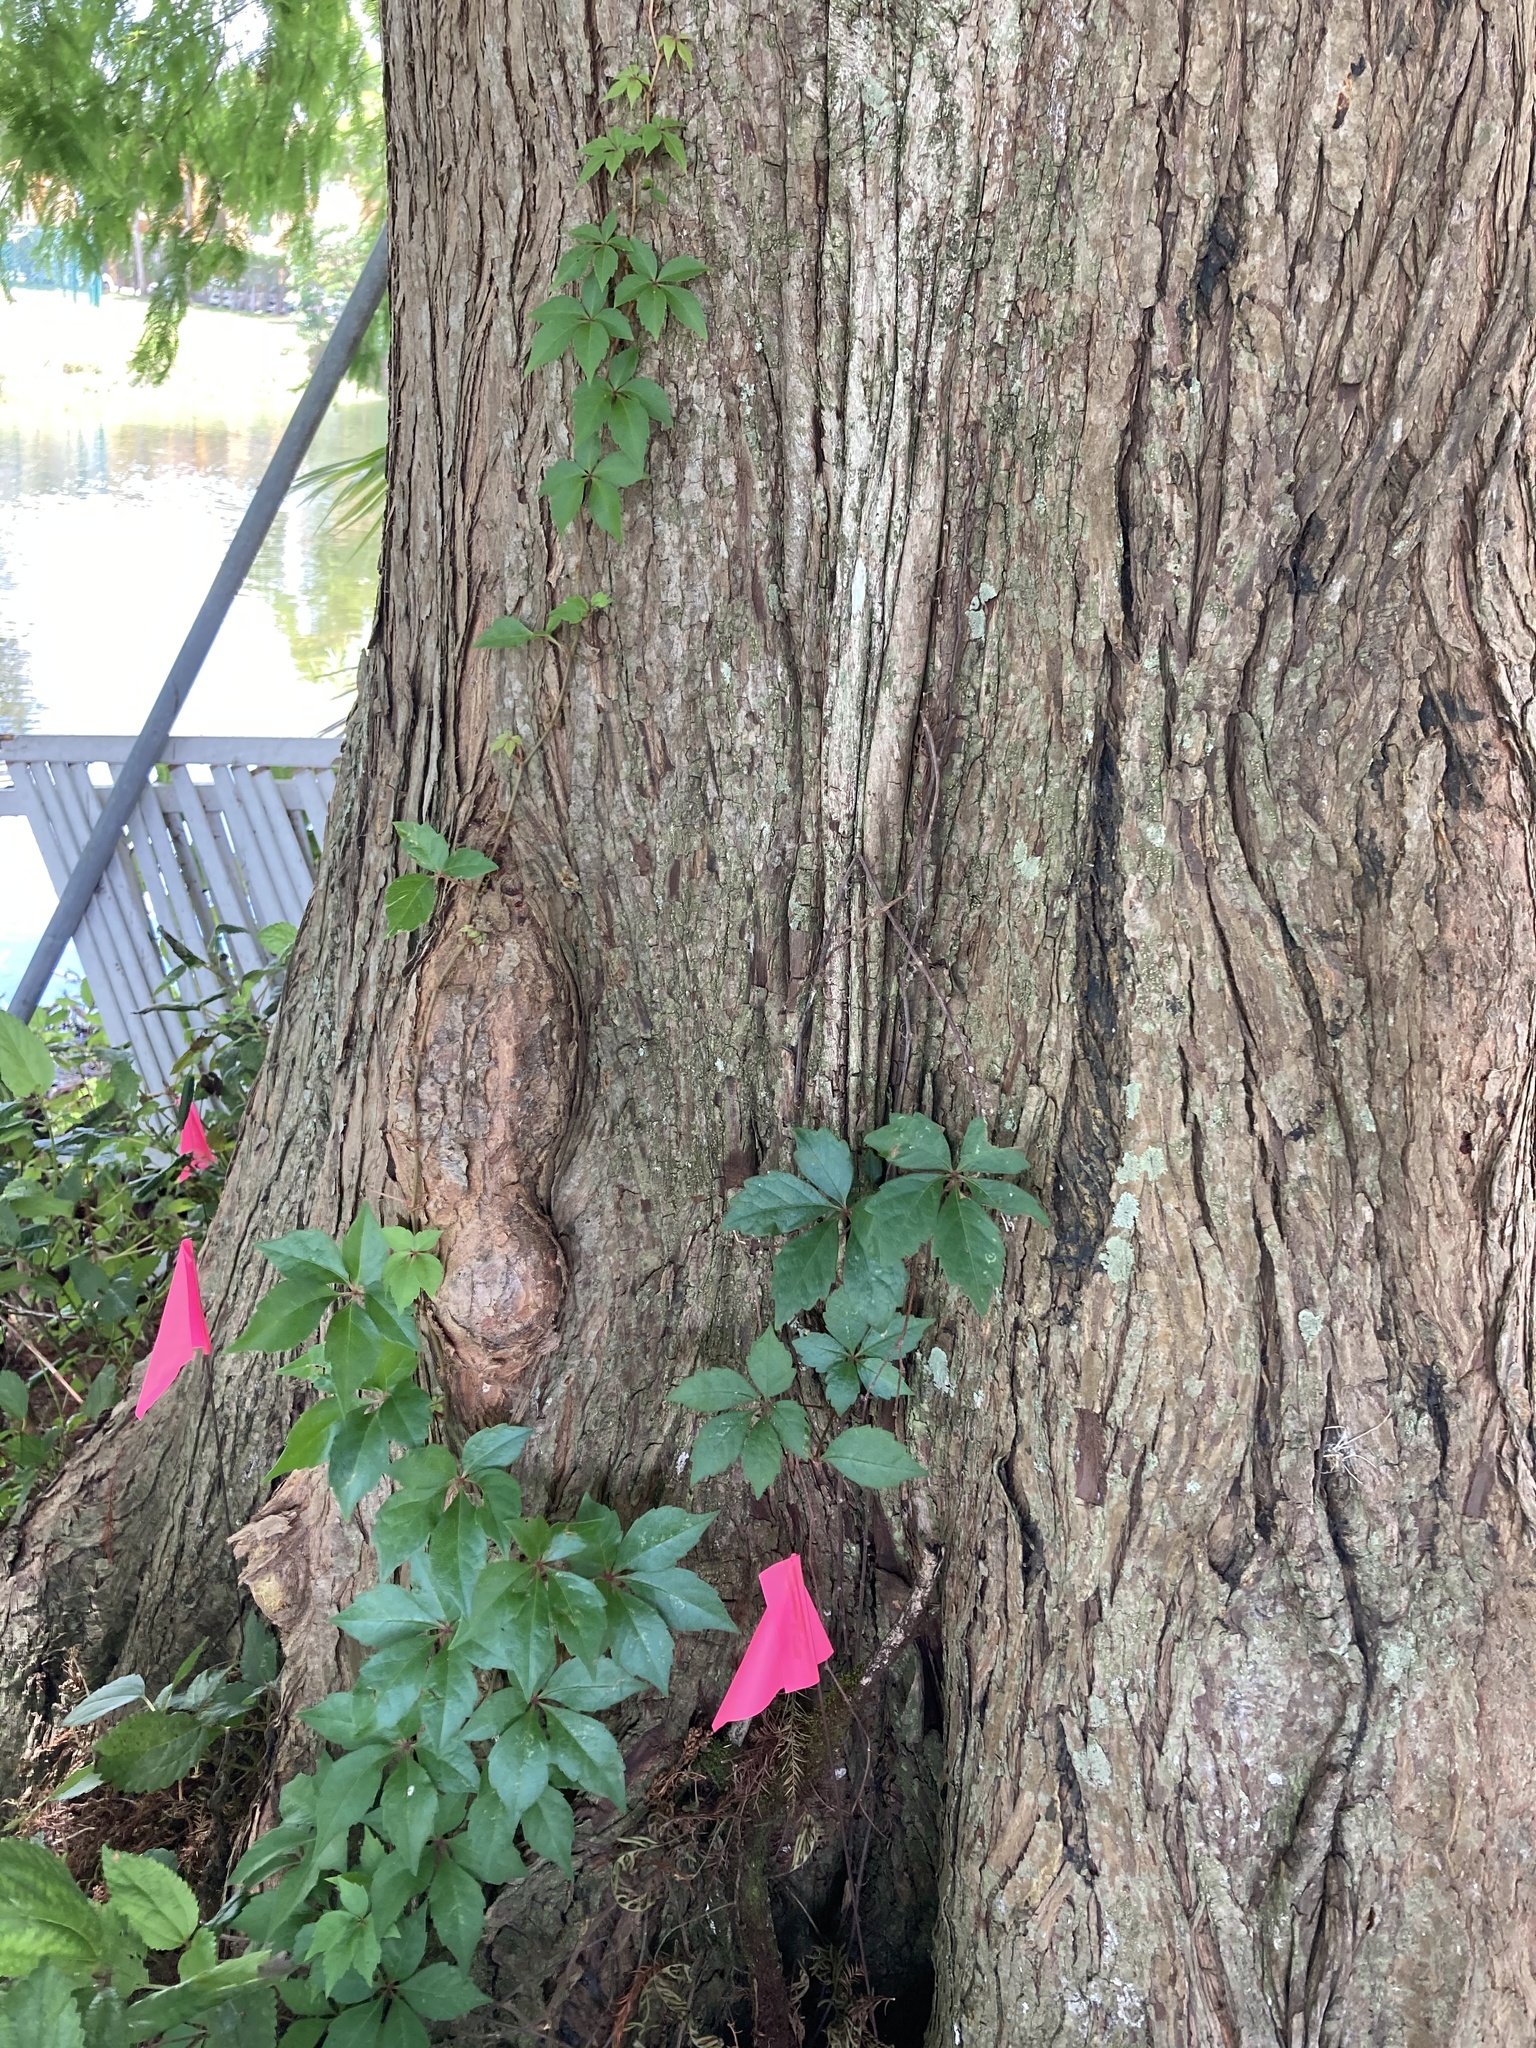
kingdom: Plantae
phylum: Tracheophyta
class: Magnoliopsida
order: Vitales
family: Vitaceae
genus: Parthenocissus
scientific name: Parthenocissus quinquefolia
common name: Virginia-creeper
